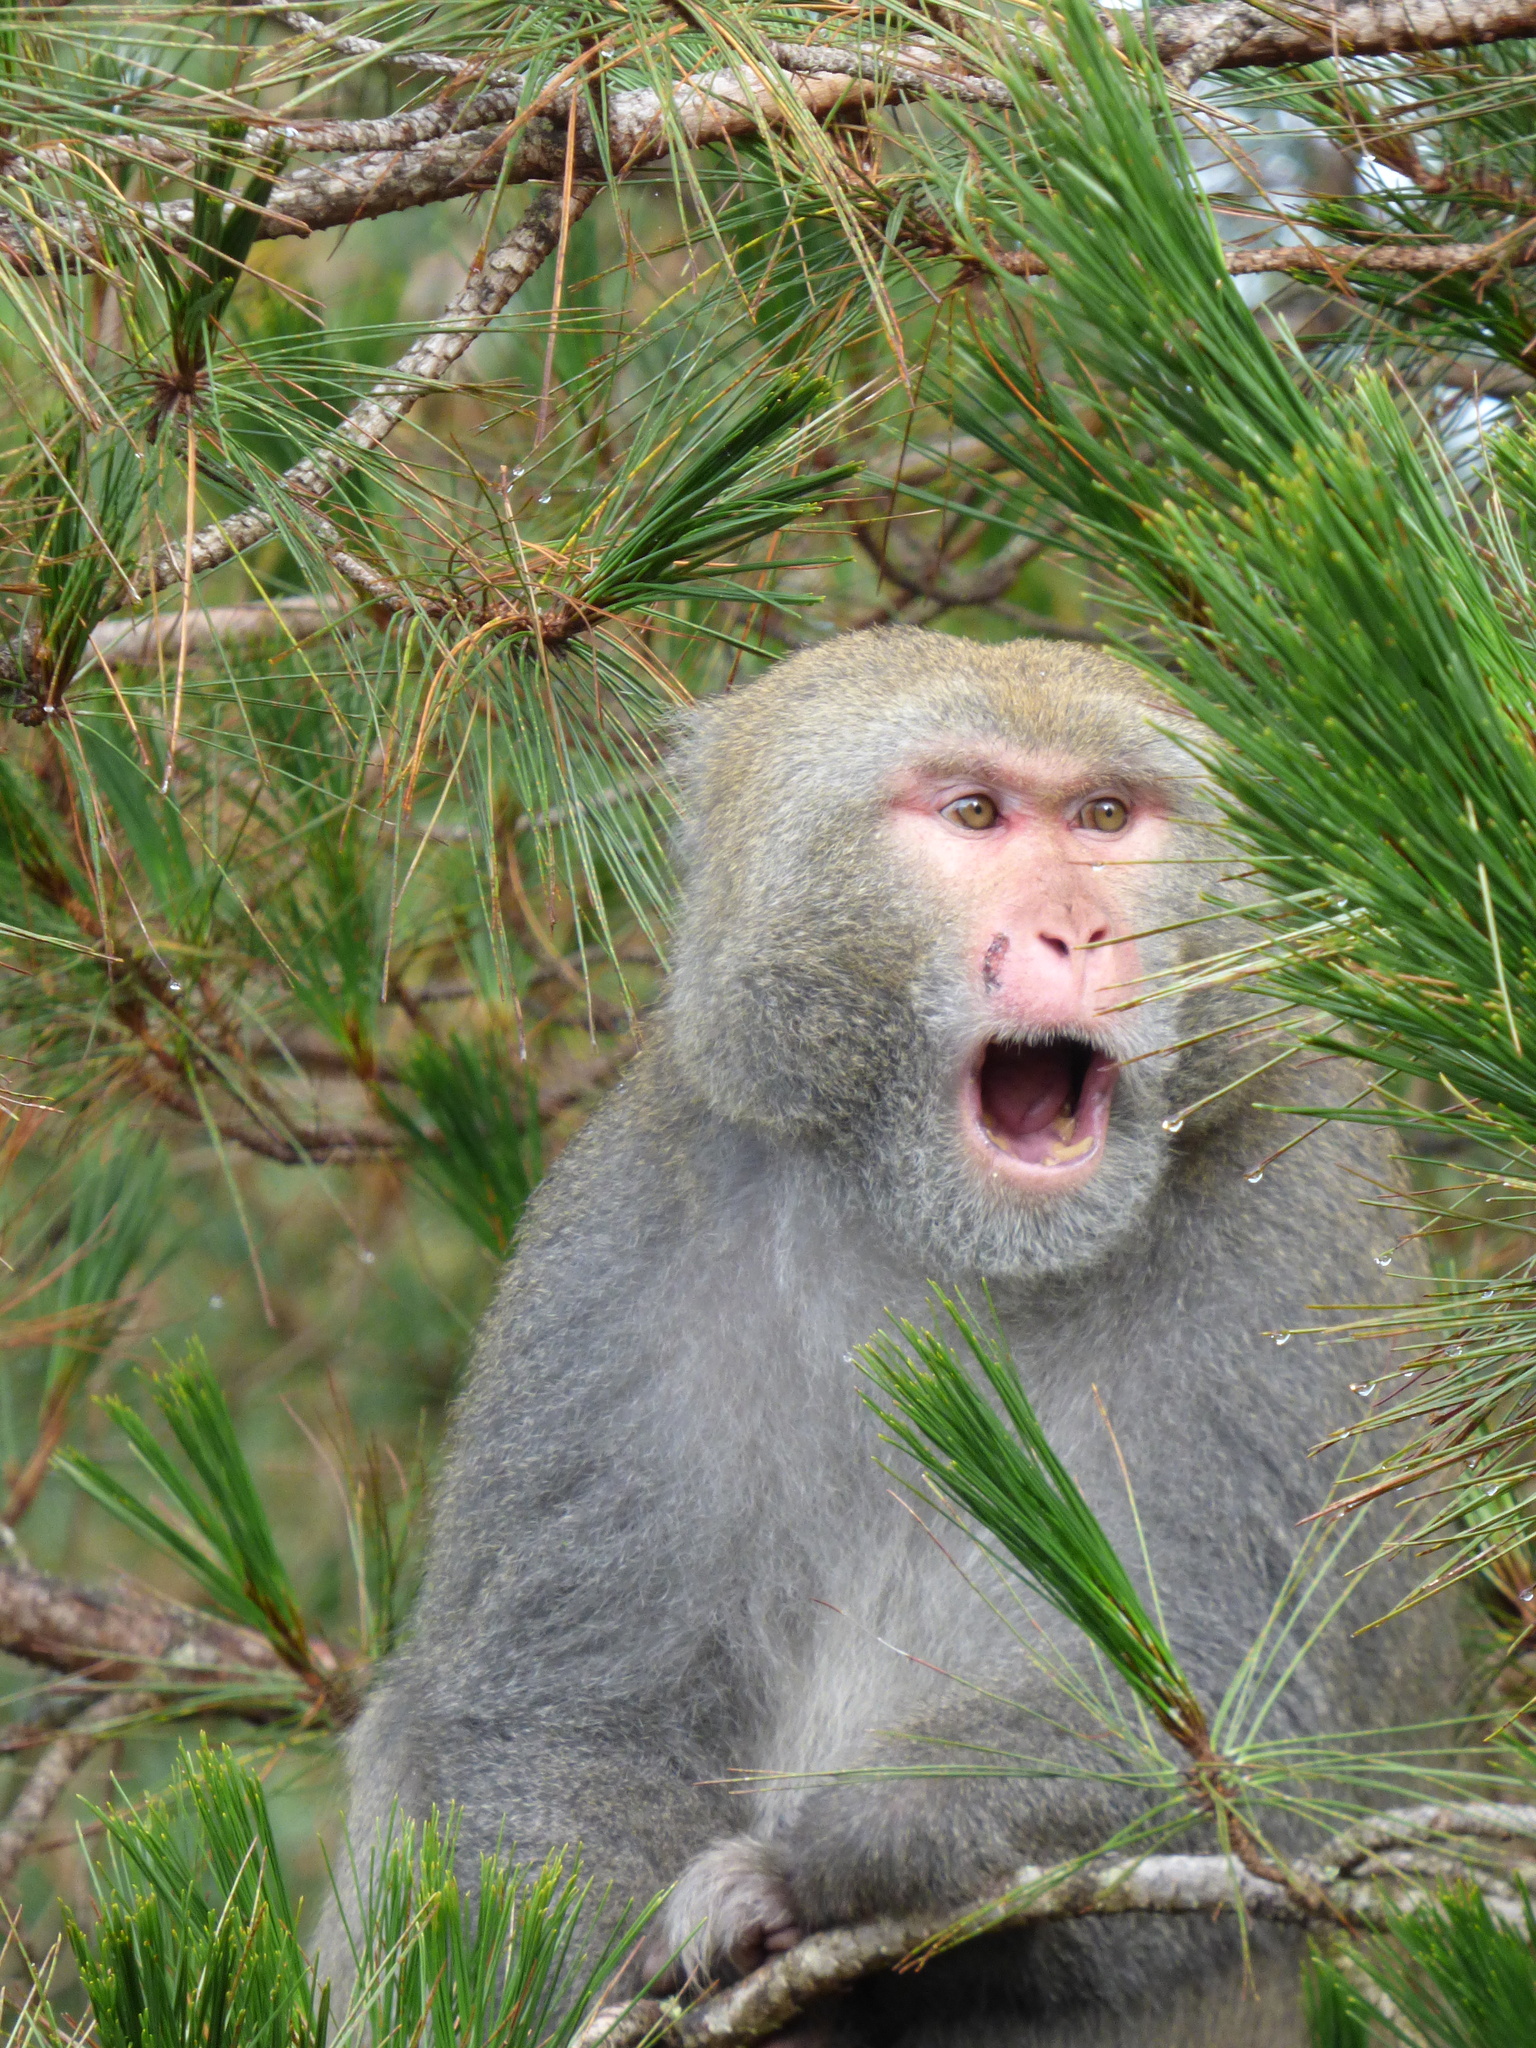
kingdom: Animalia
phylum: Chordata
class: Mammalia
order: Primates
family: Cercopithecidae
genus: Macaca
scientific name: Macaca cyclopis
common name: Formosan rock macaque
